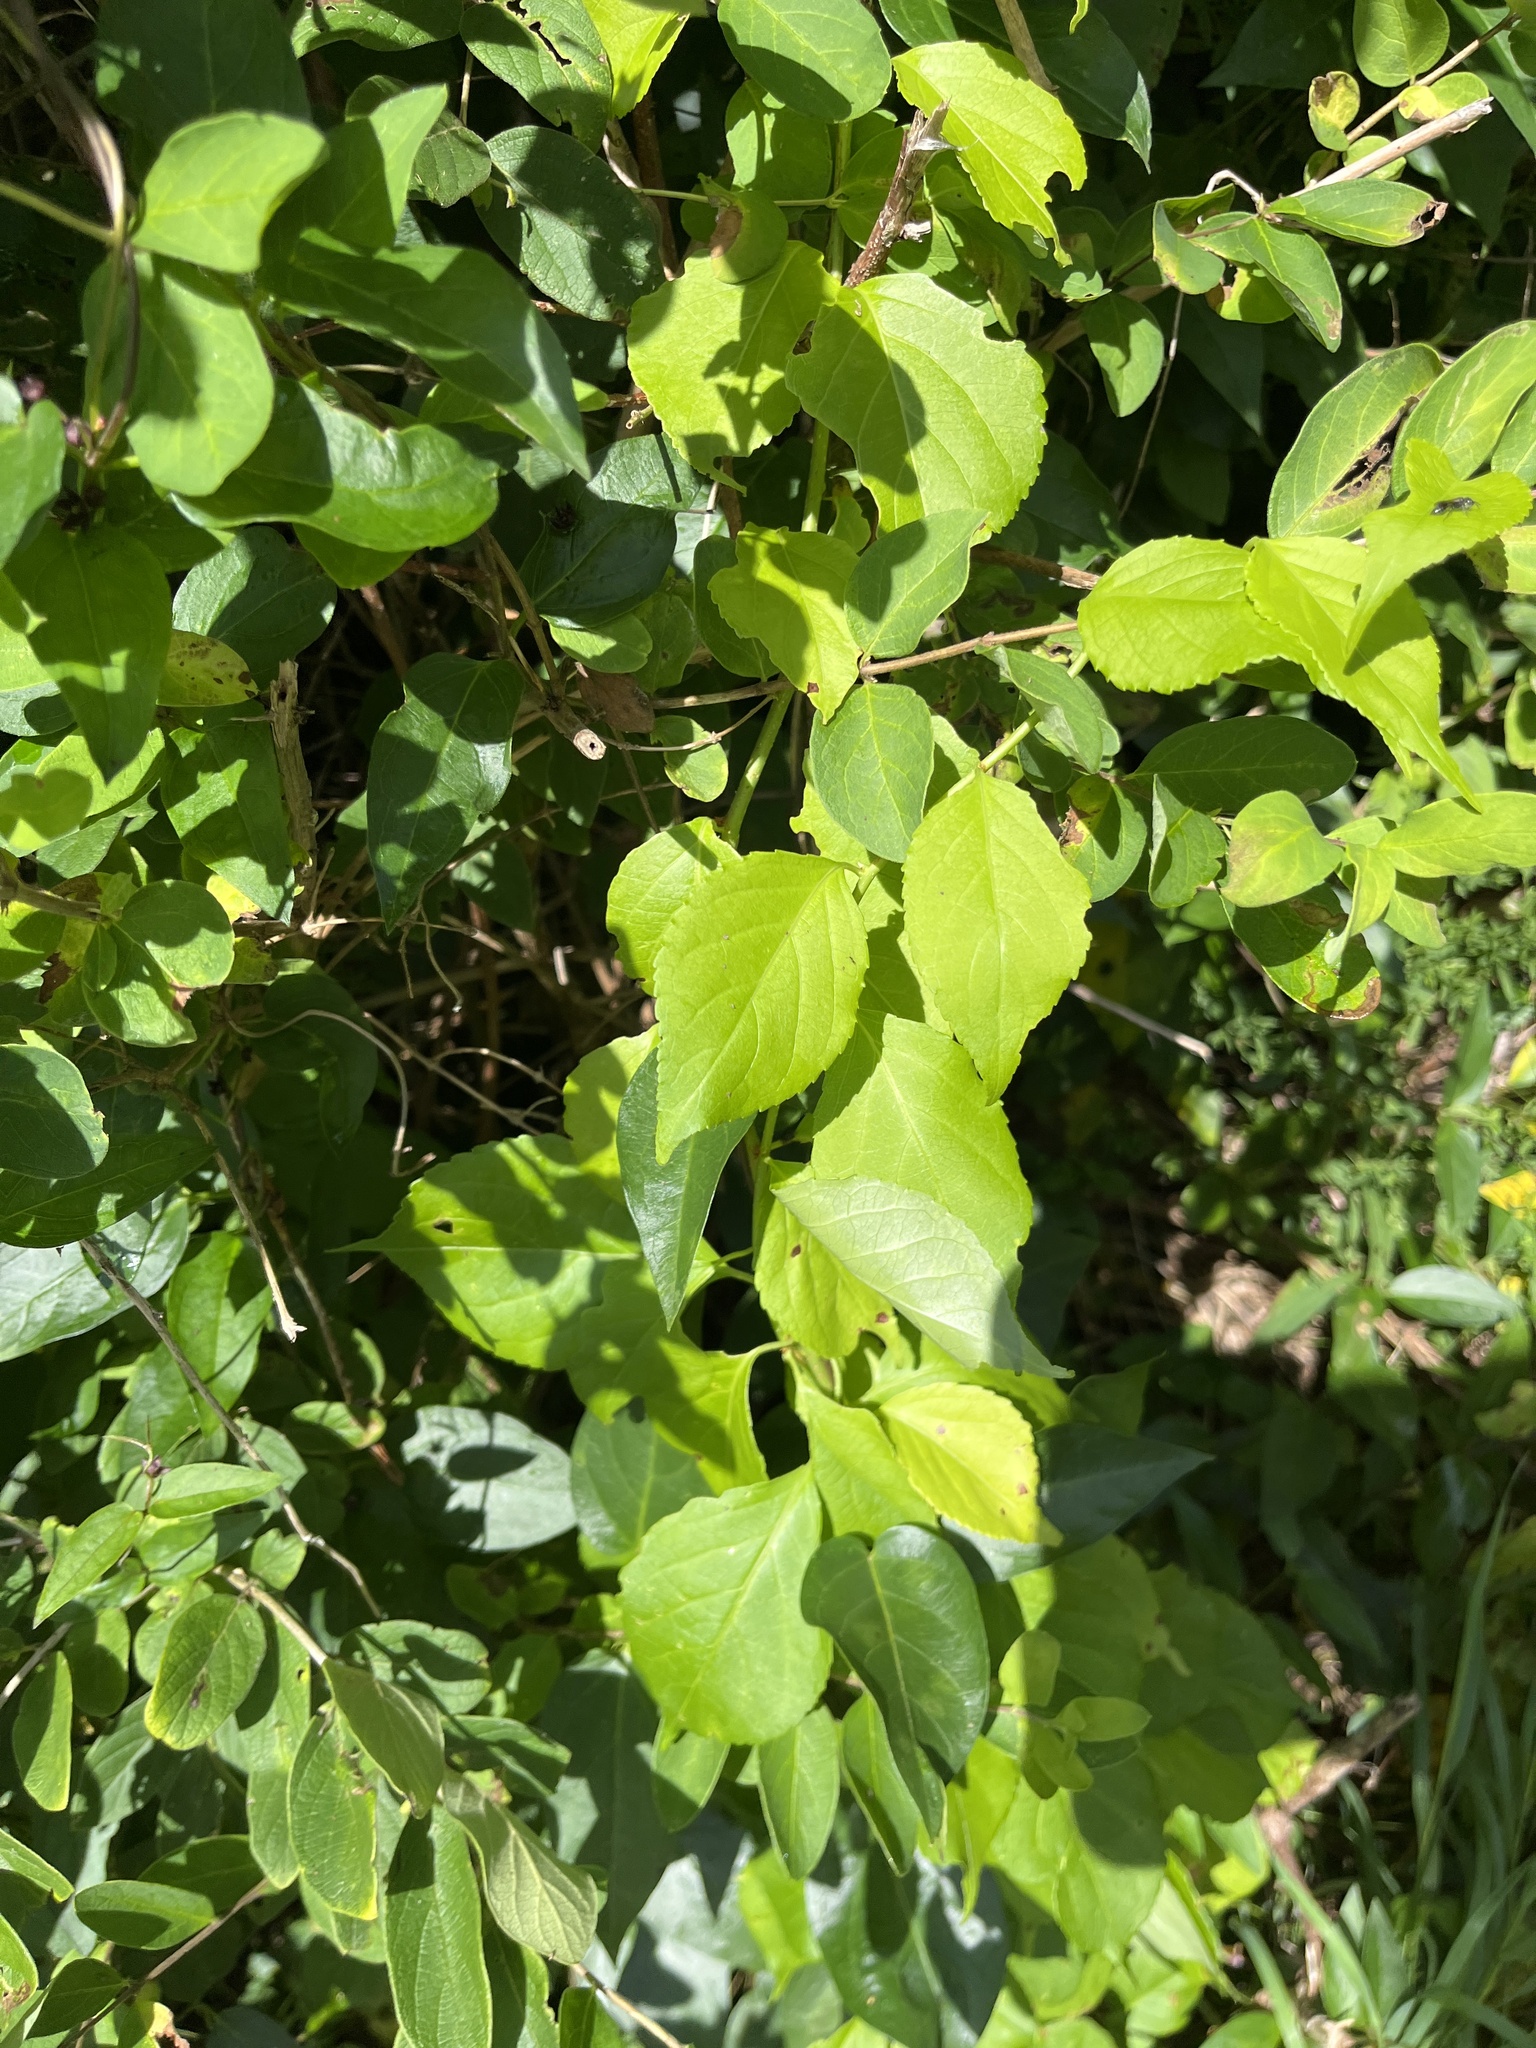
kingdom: Plantae
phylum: Tracheophyta
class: Magnoliopsida
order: Celastrales
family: Celastraceae
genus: Celastrus
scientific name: Celastrus orbiculatus
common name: Oriental bittersweet
